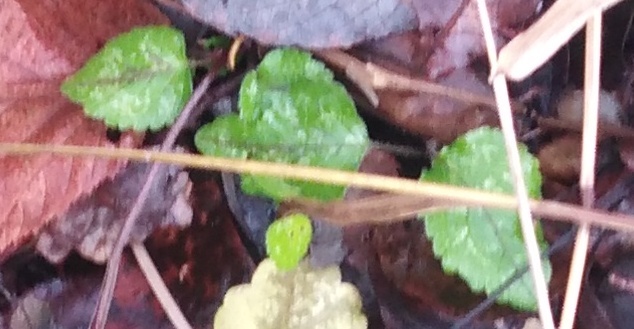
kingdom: Plantae
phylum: Tracheophyta
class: Magnoliopsida
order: Lamiales
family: Lamiaceae
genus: Lamium
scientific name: Lamium galeobdolon
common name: Yellow archangel
